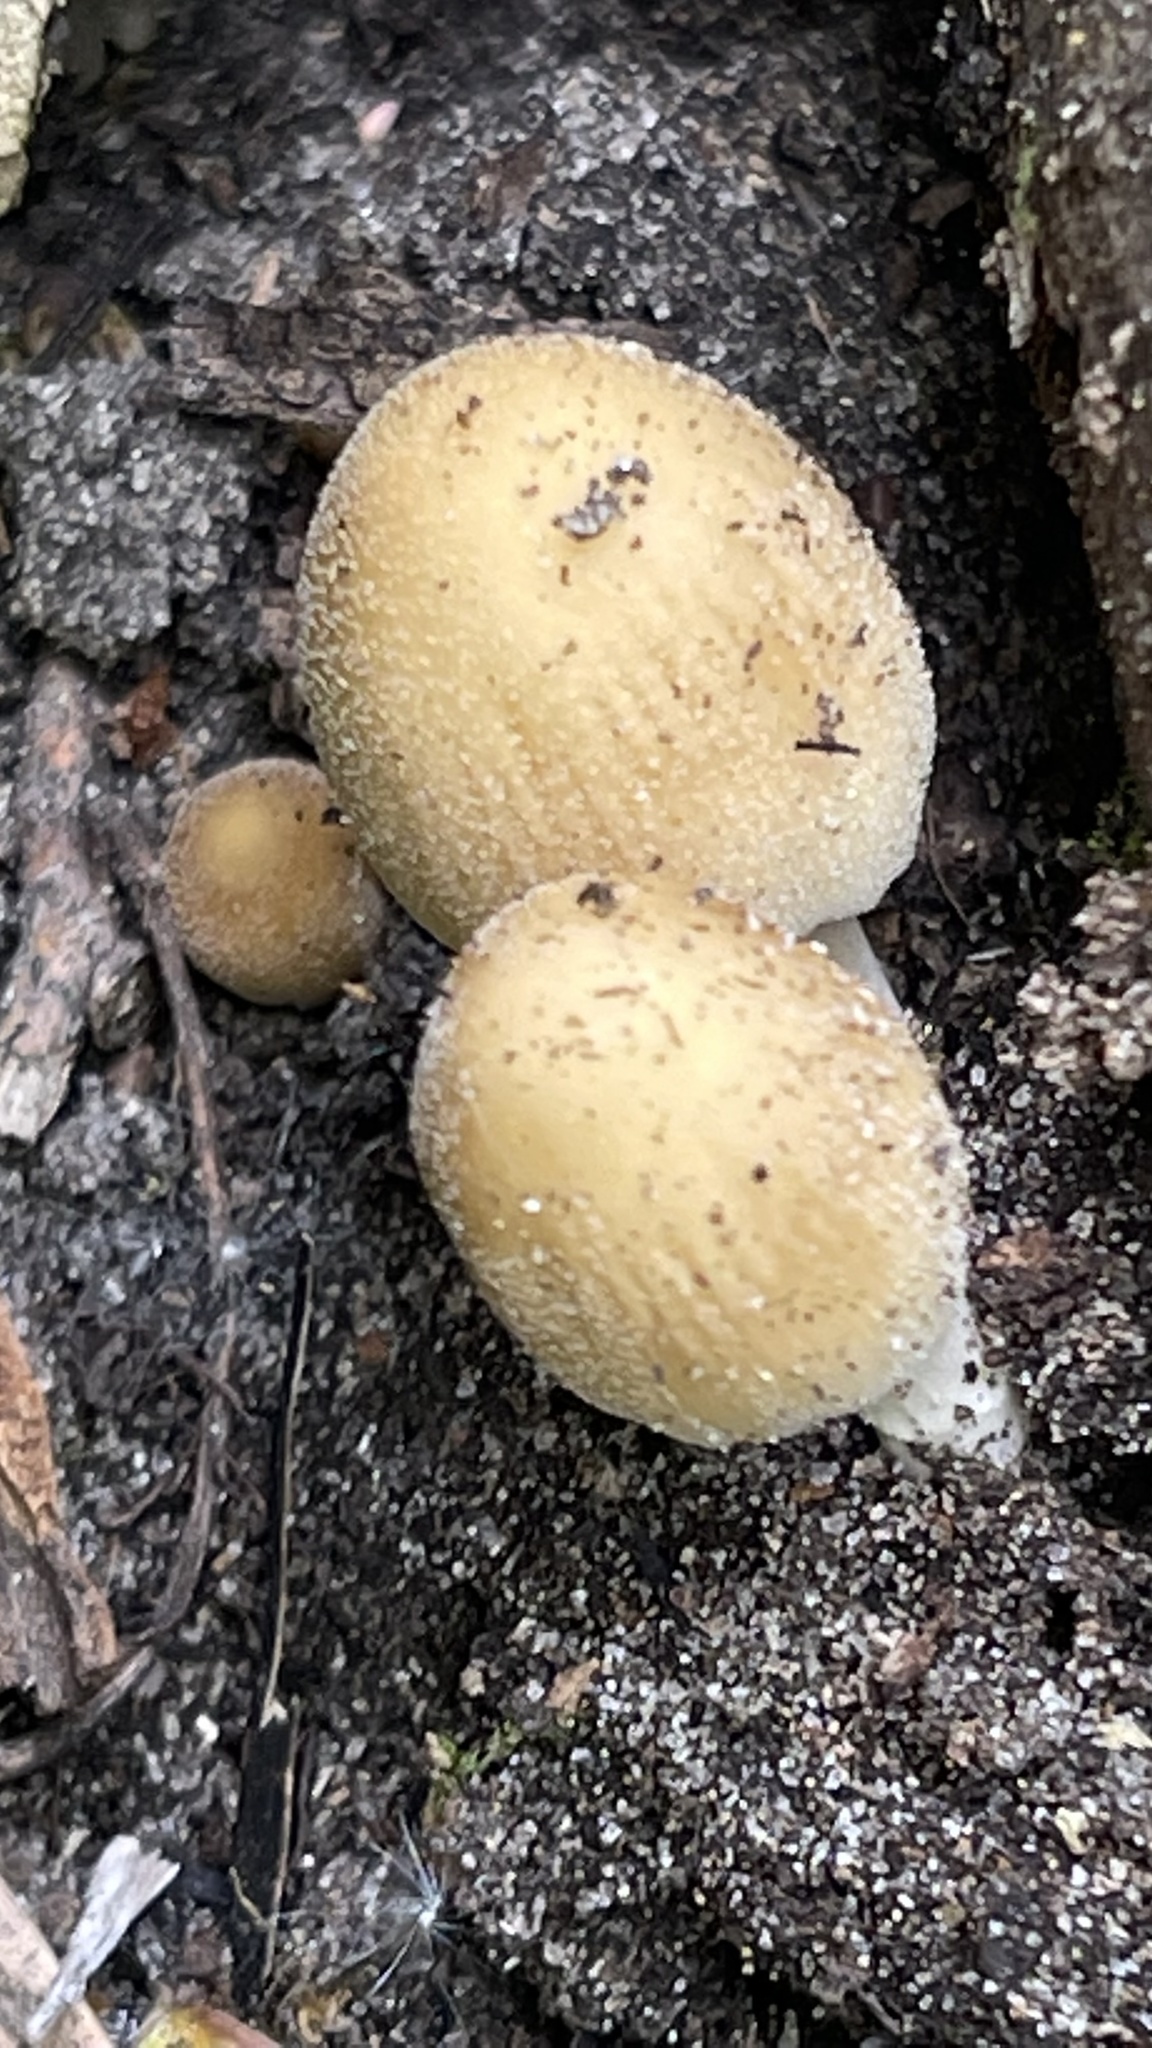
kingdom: Fungi
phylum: Basidiomycota
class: Agaricomycetes
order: Agaricales
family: Psathyrellaceae
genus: Coprinellus
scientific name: Coprinellus micaceus
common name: Glistening ink-cap
